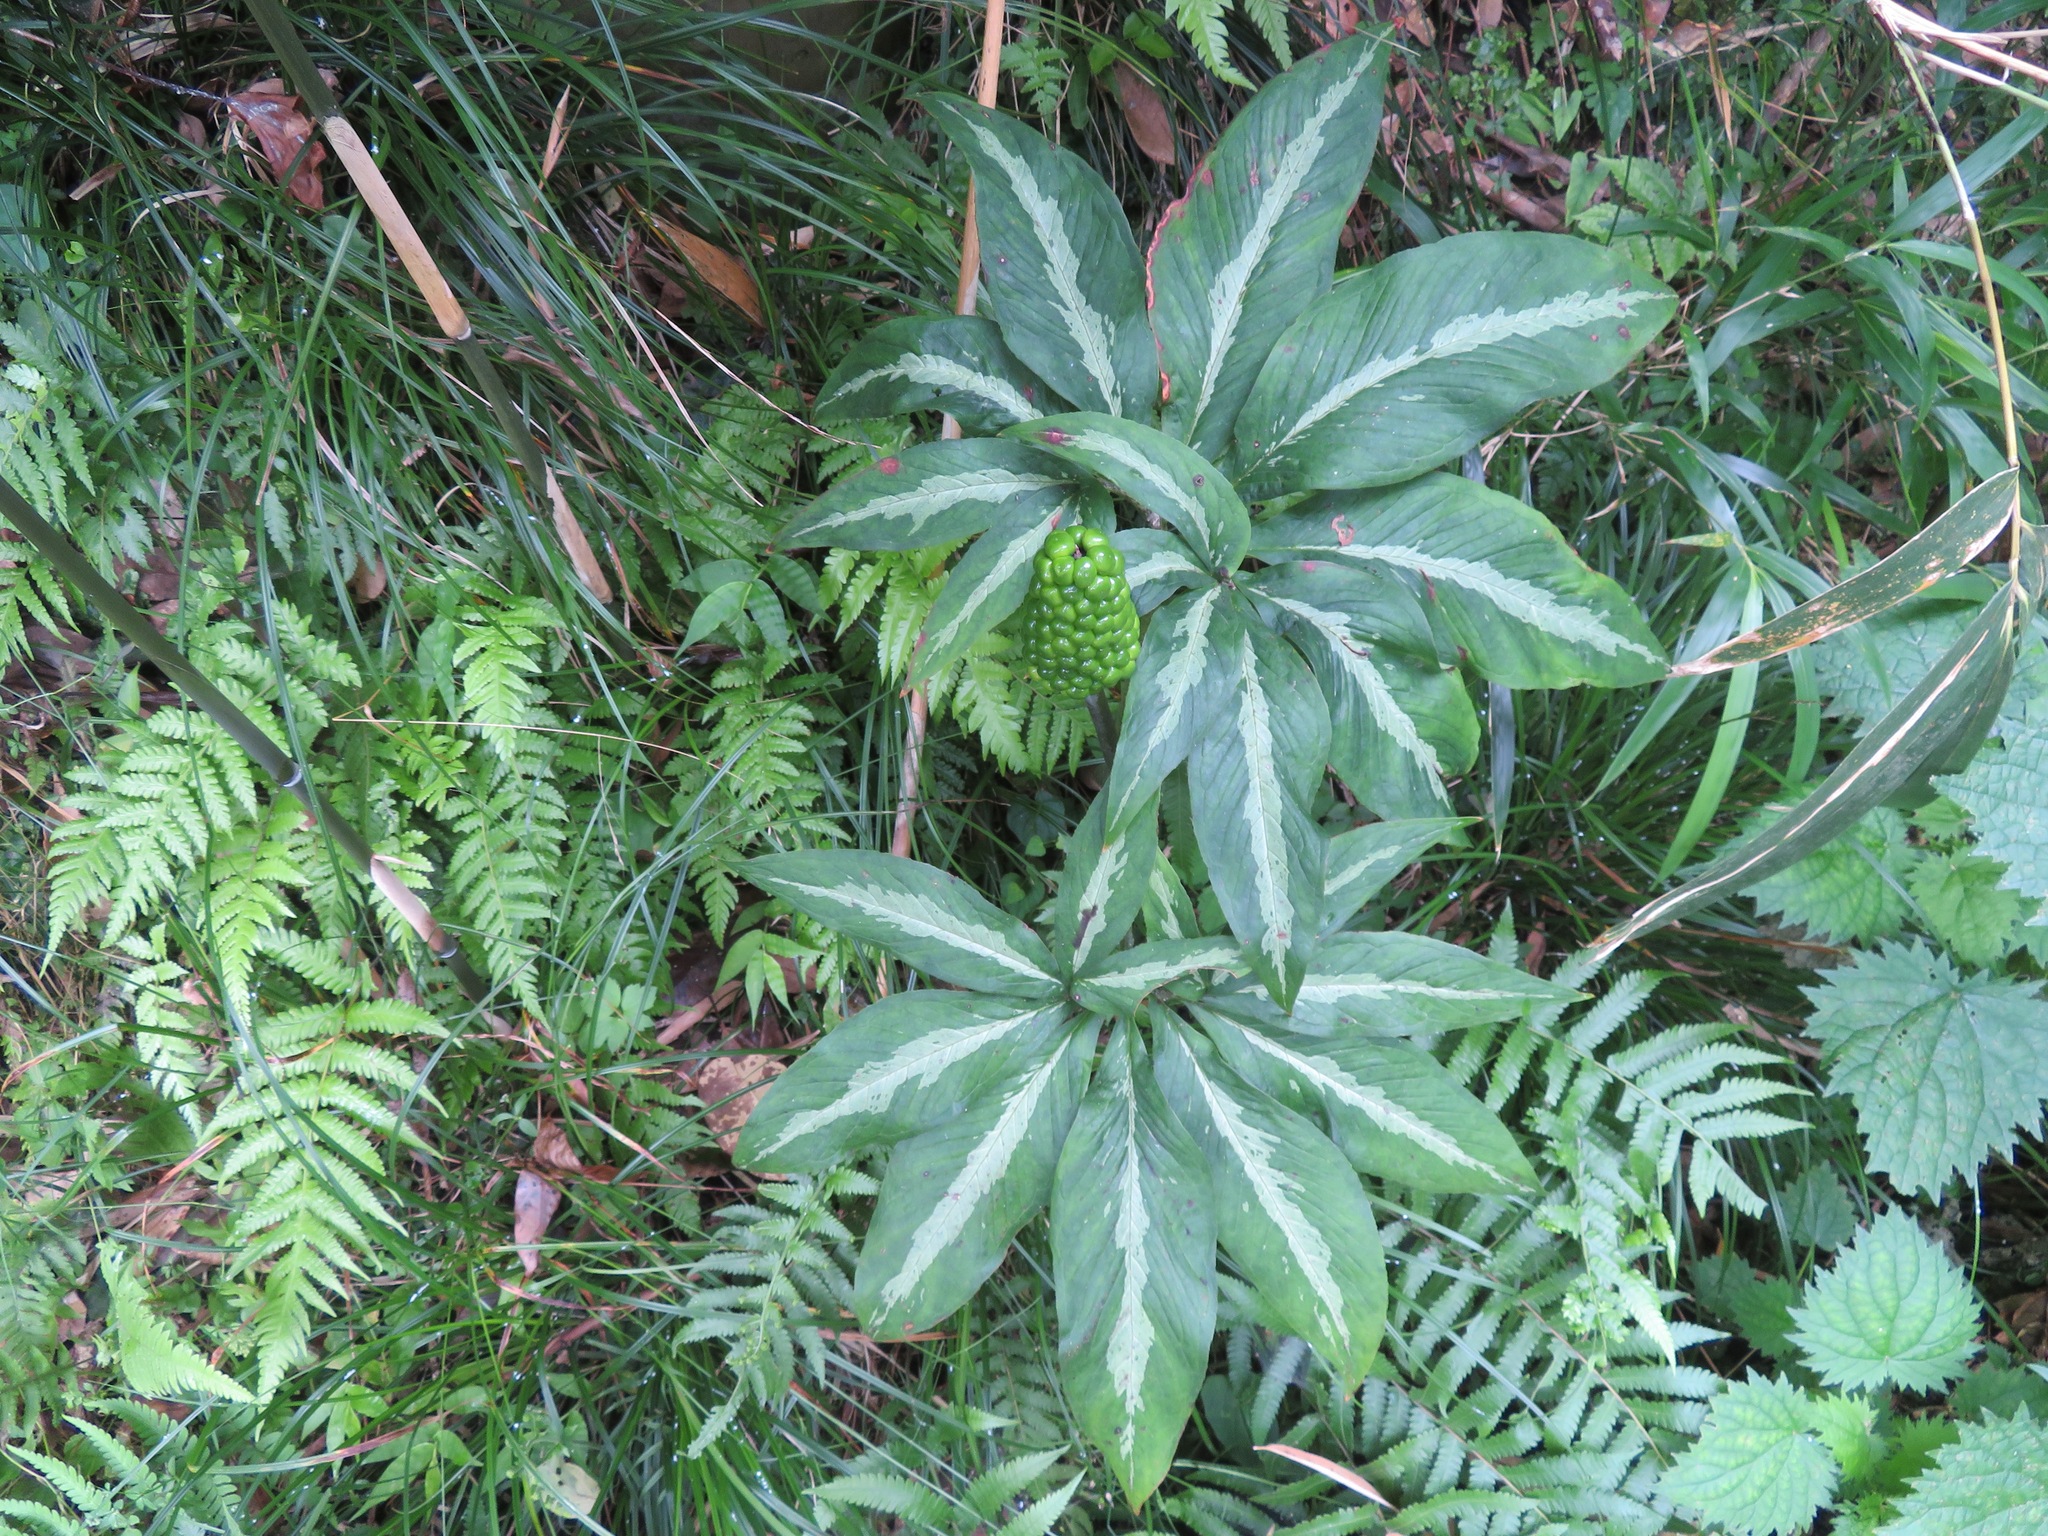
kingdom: Plantae
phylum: Tracheophyta
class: Liliopsida
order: Alismatales
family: Araceae
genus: Arisaema
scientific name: Arisaema aequinoctiale
